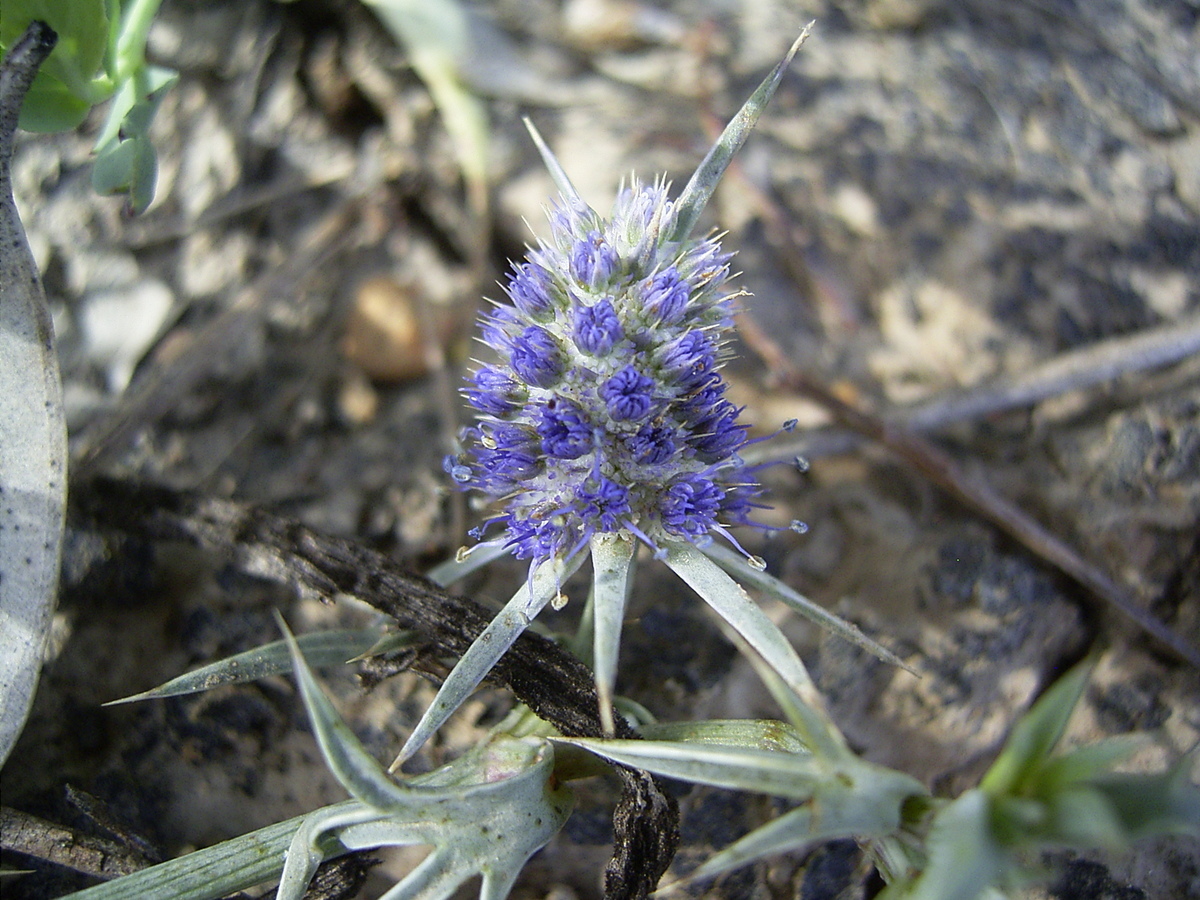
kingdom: Plantae
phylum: Tracheophyta
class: Magnoliopsida
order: Apiales
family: Apiaceae
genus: Eryngium
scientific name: Eryngium paludosum
